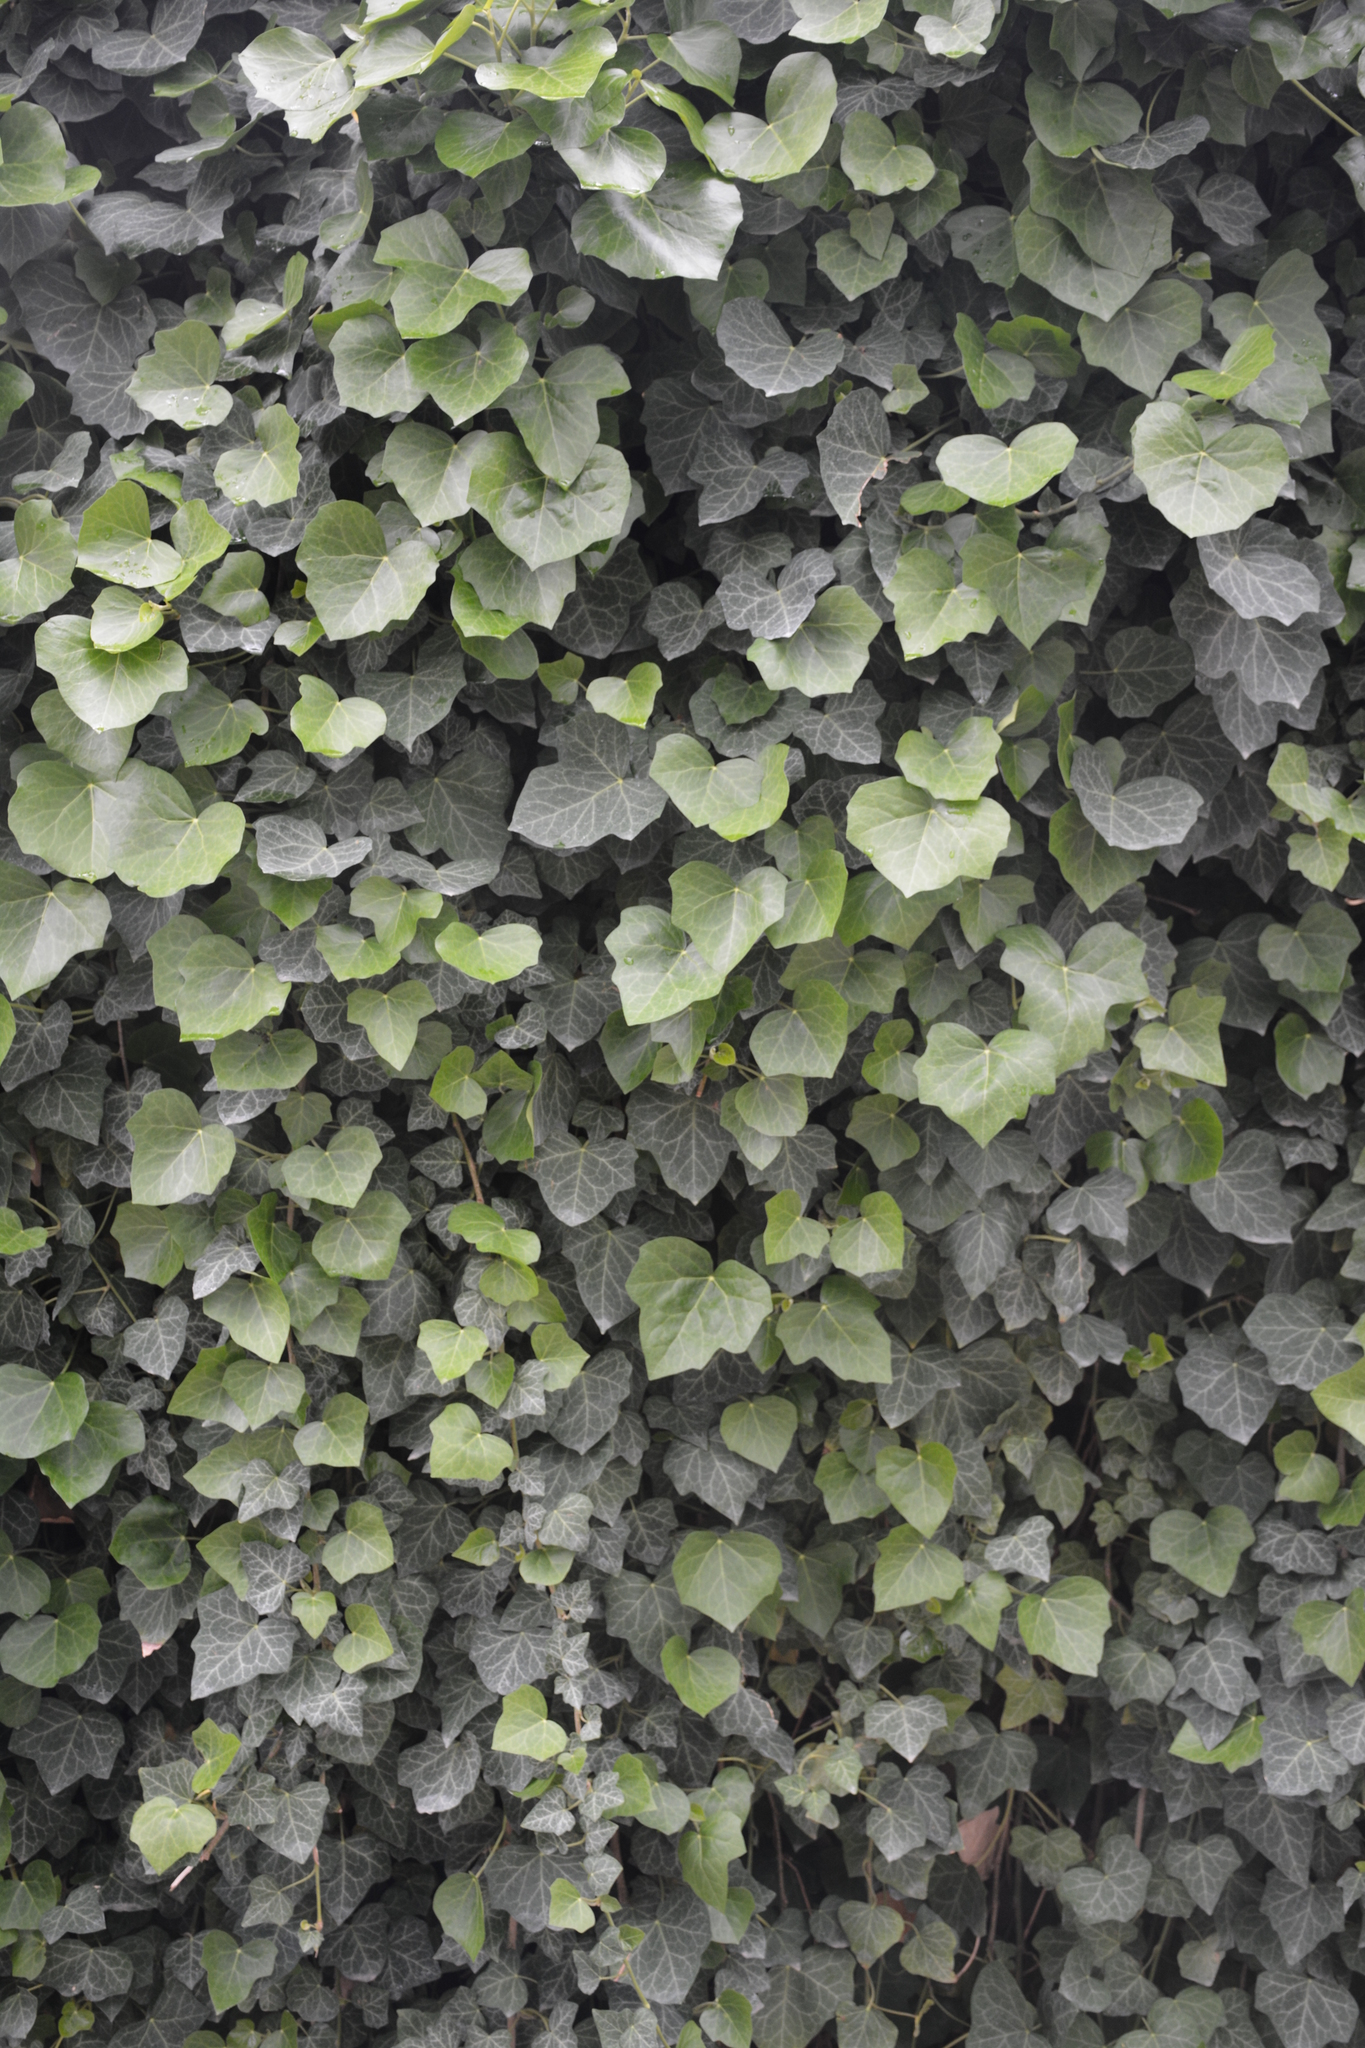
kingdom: Plantae
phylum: Tracheophyta
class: Magnoliopsida
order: Apiales
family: Araliaceae
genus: Hedera
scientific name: Hedera helix
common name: Ivy
